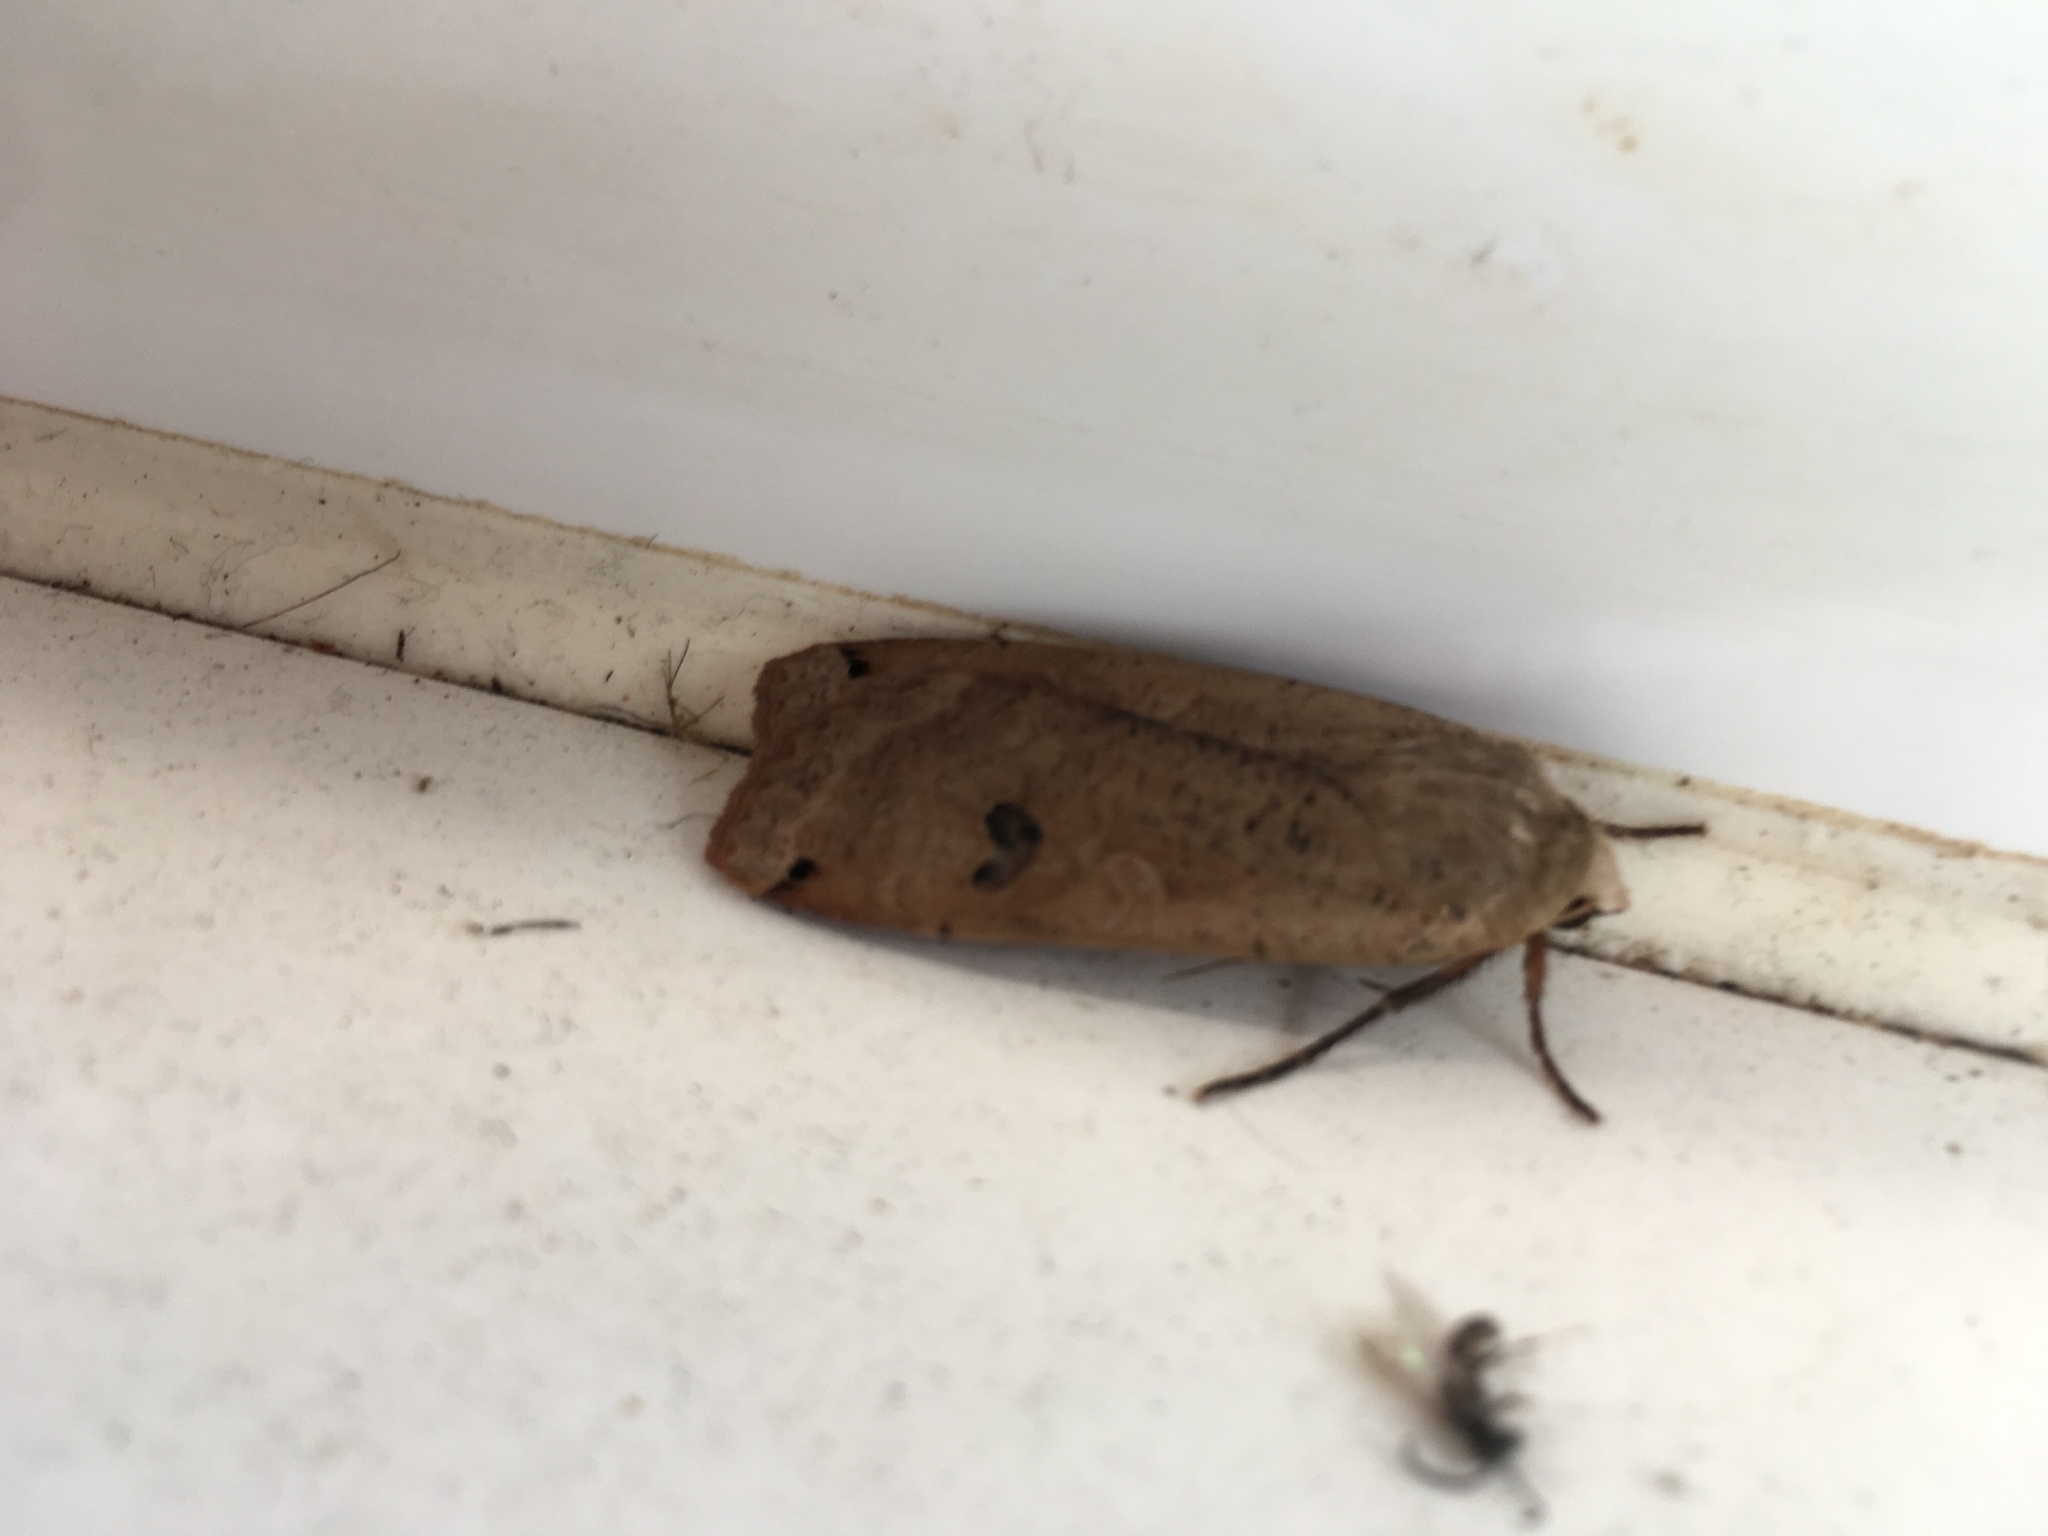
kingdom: Animalia
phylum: Arthropoda
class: Insecta
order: Lepidoptera
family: Noctuidae
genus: Noctua
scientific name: Noctua pronuba
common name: Large yellow underwing
